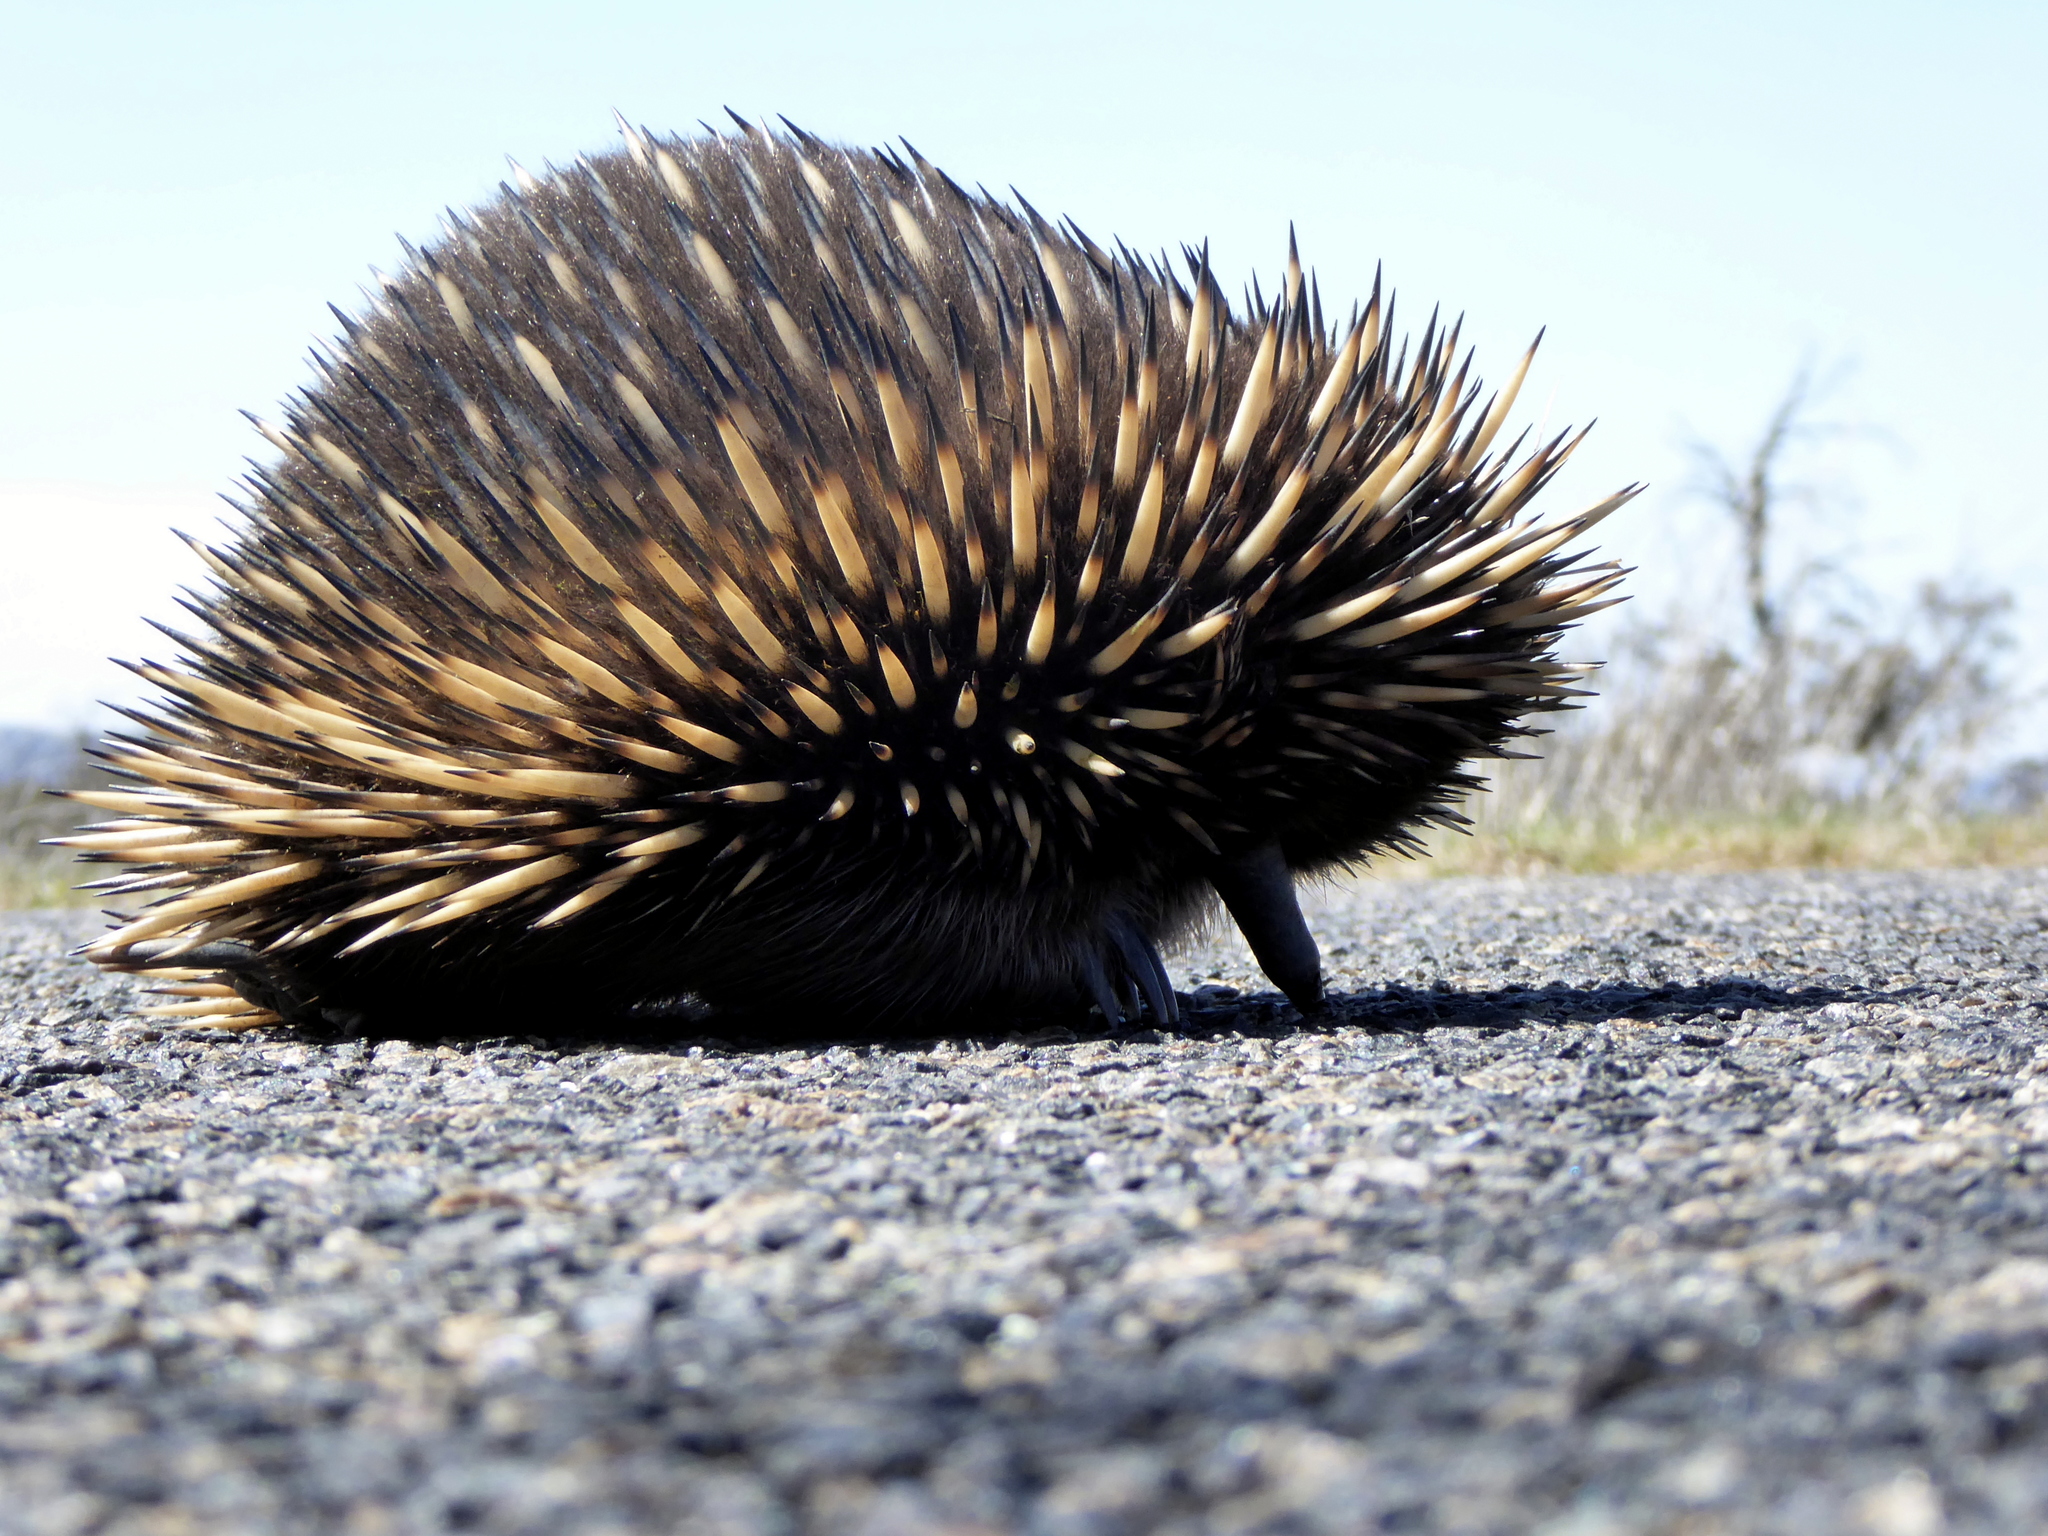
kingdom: Animalia
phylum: Chordata
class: Mammalia
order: Monotremata
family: Tachyglossidae
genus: Tachyglossus
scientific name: Tachyglossus aculeatus
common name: Short-beaked echidna
